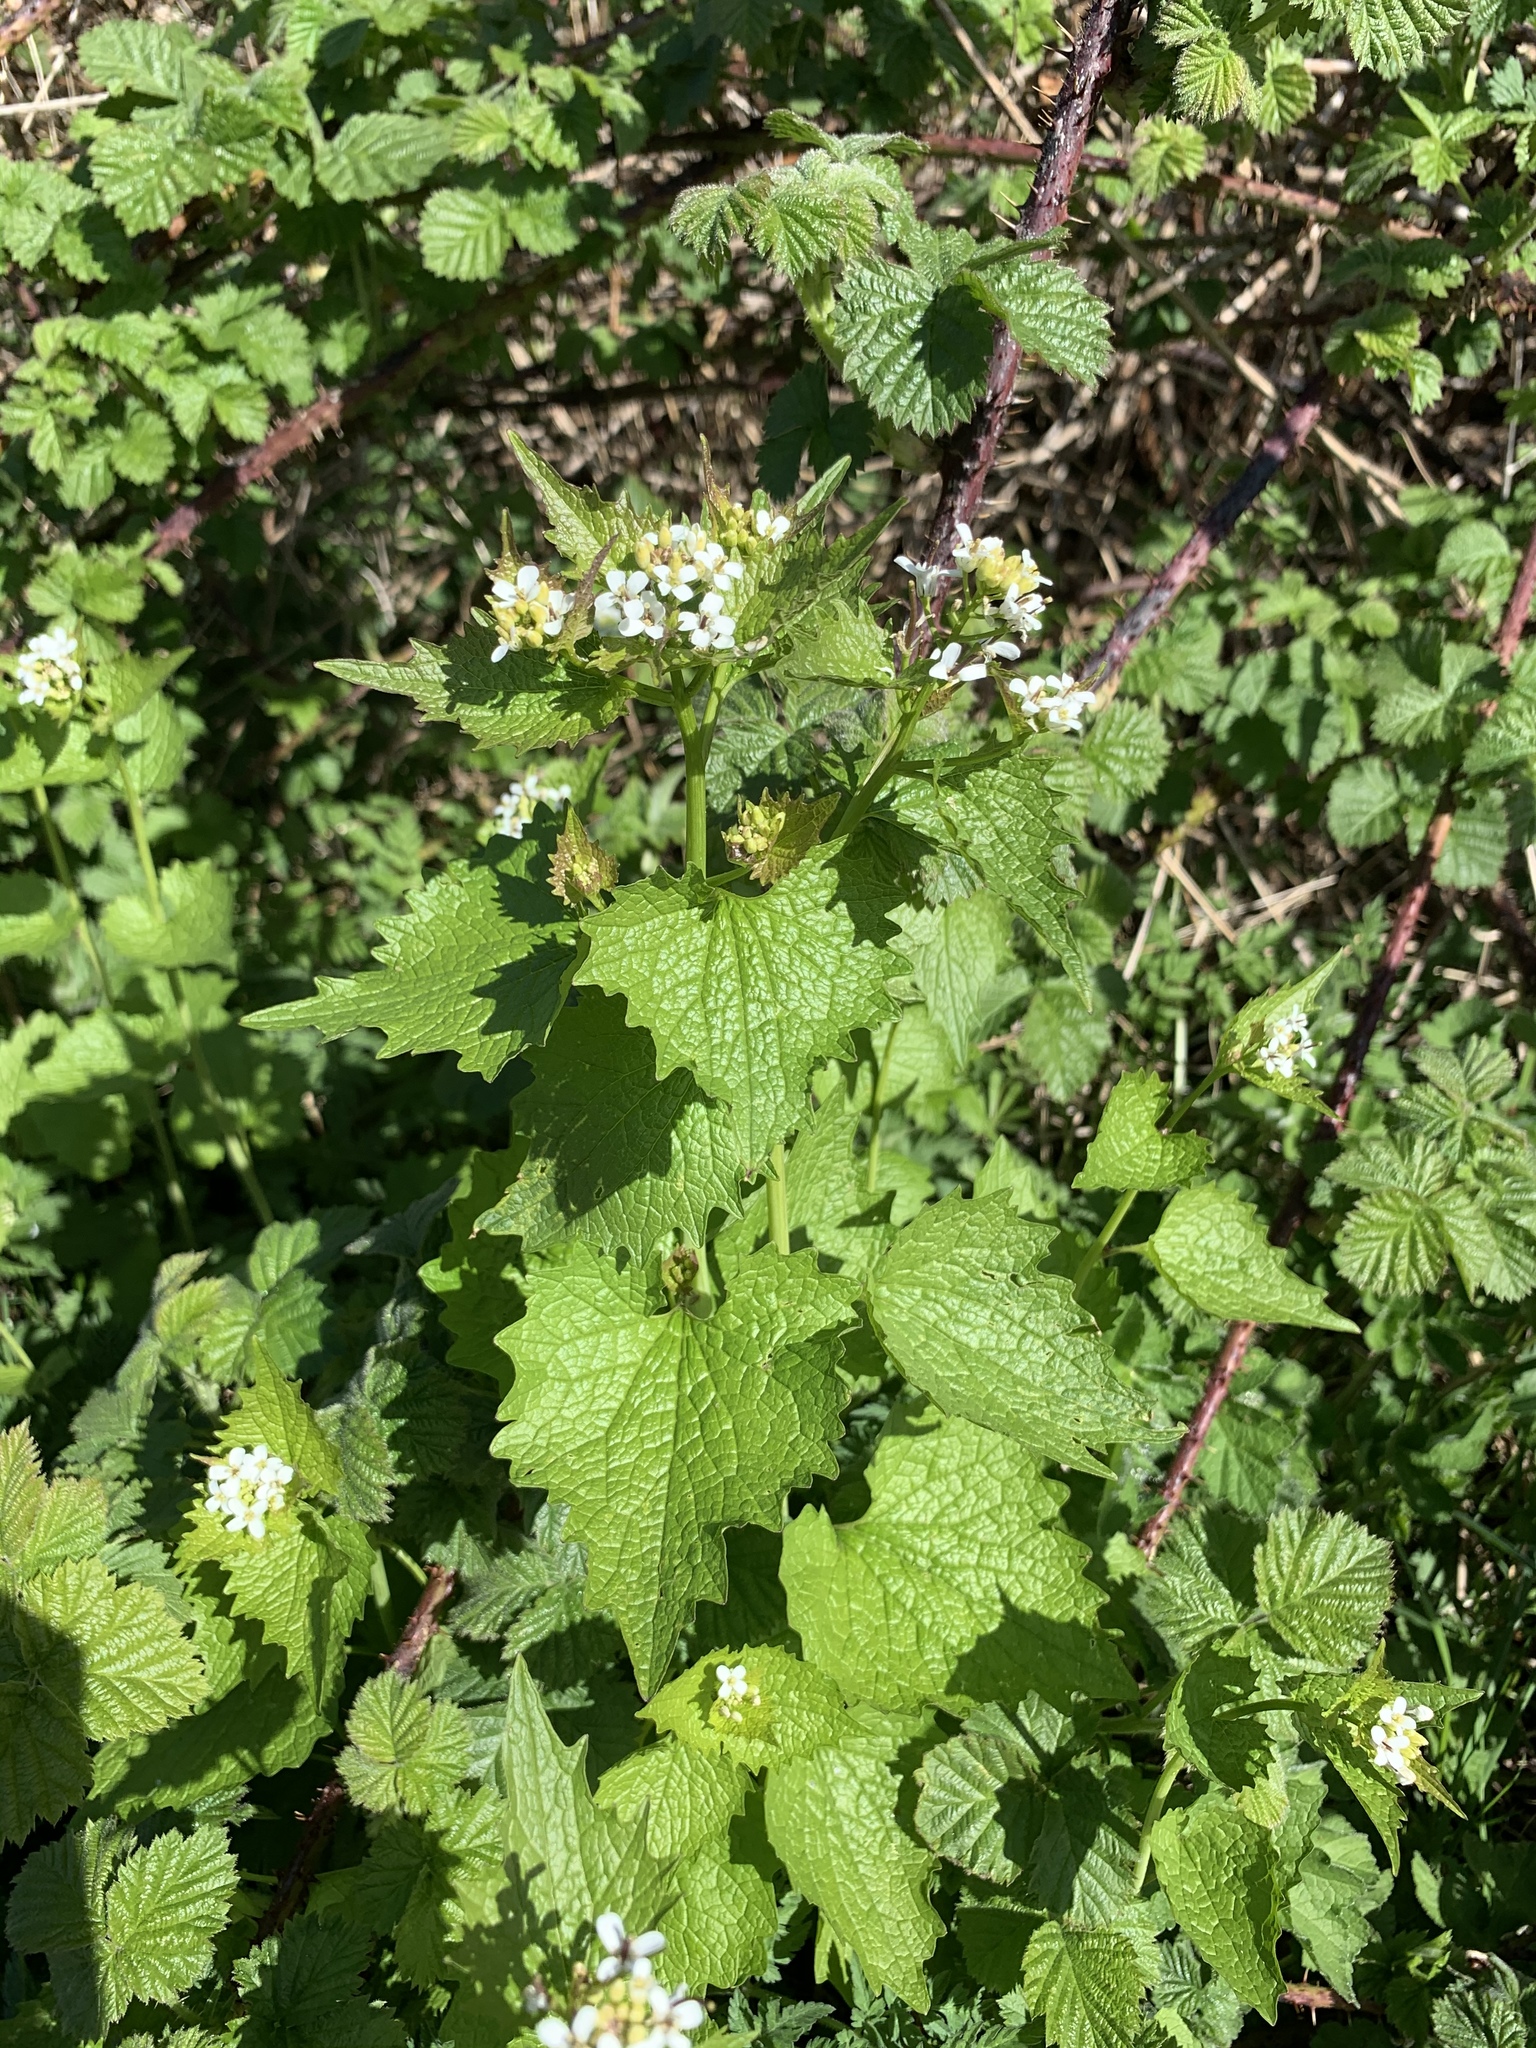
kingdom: Plantae
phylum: Tracheophyta
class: Magnoliopsida
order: Brassicales
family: Brassicaceae
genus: Alliaria
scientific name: Alliaria petiolata
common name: Garlic mustard
